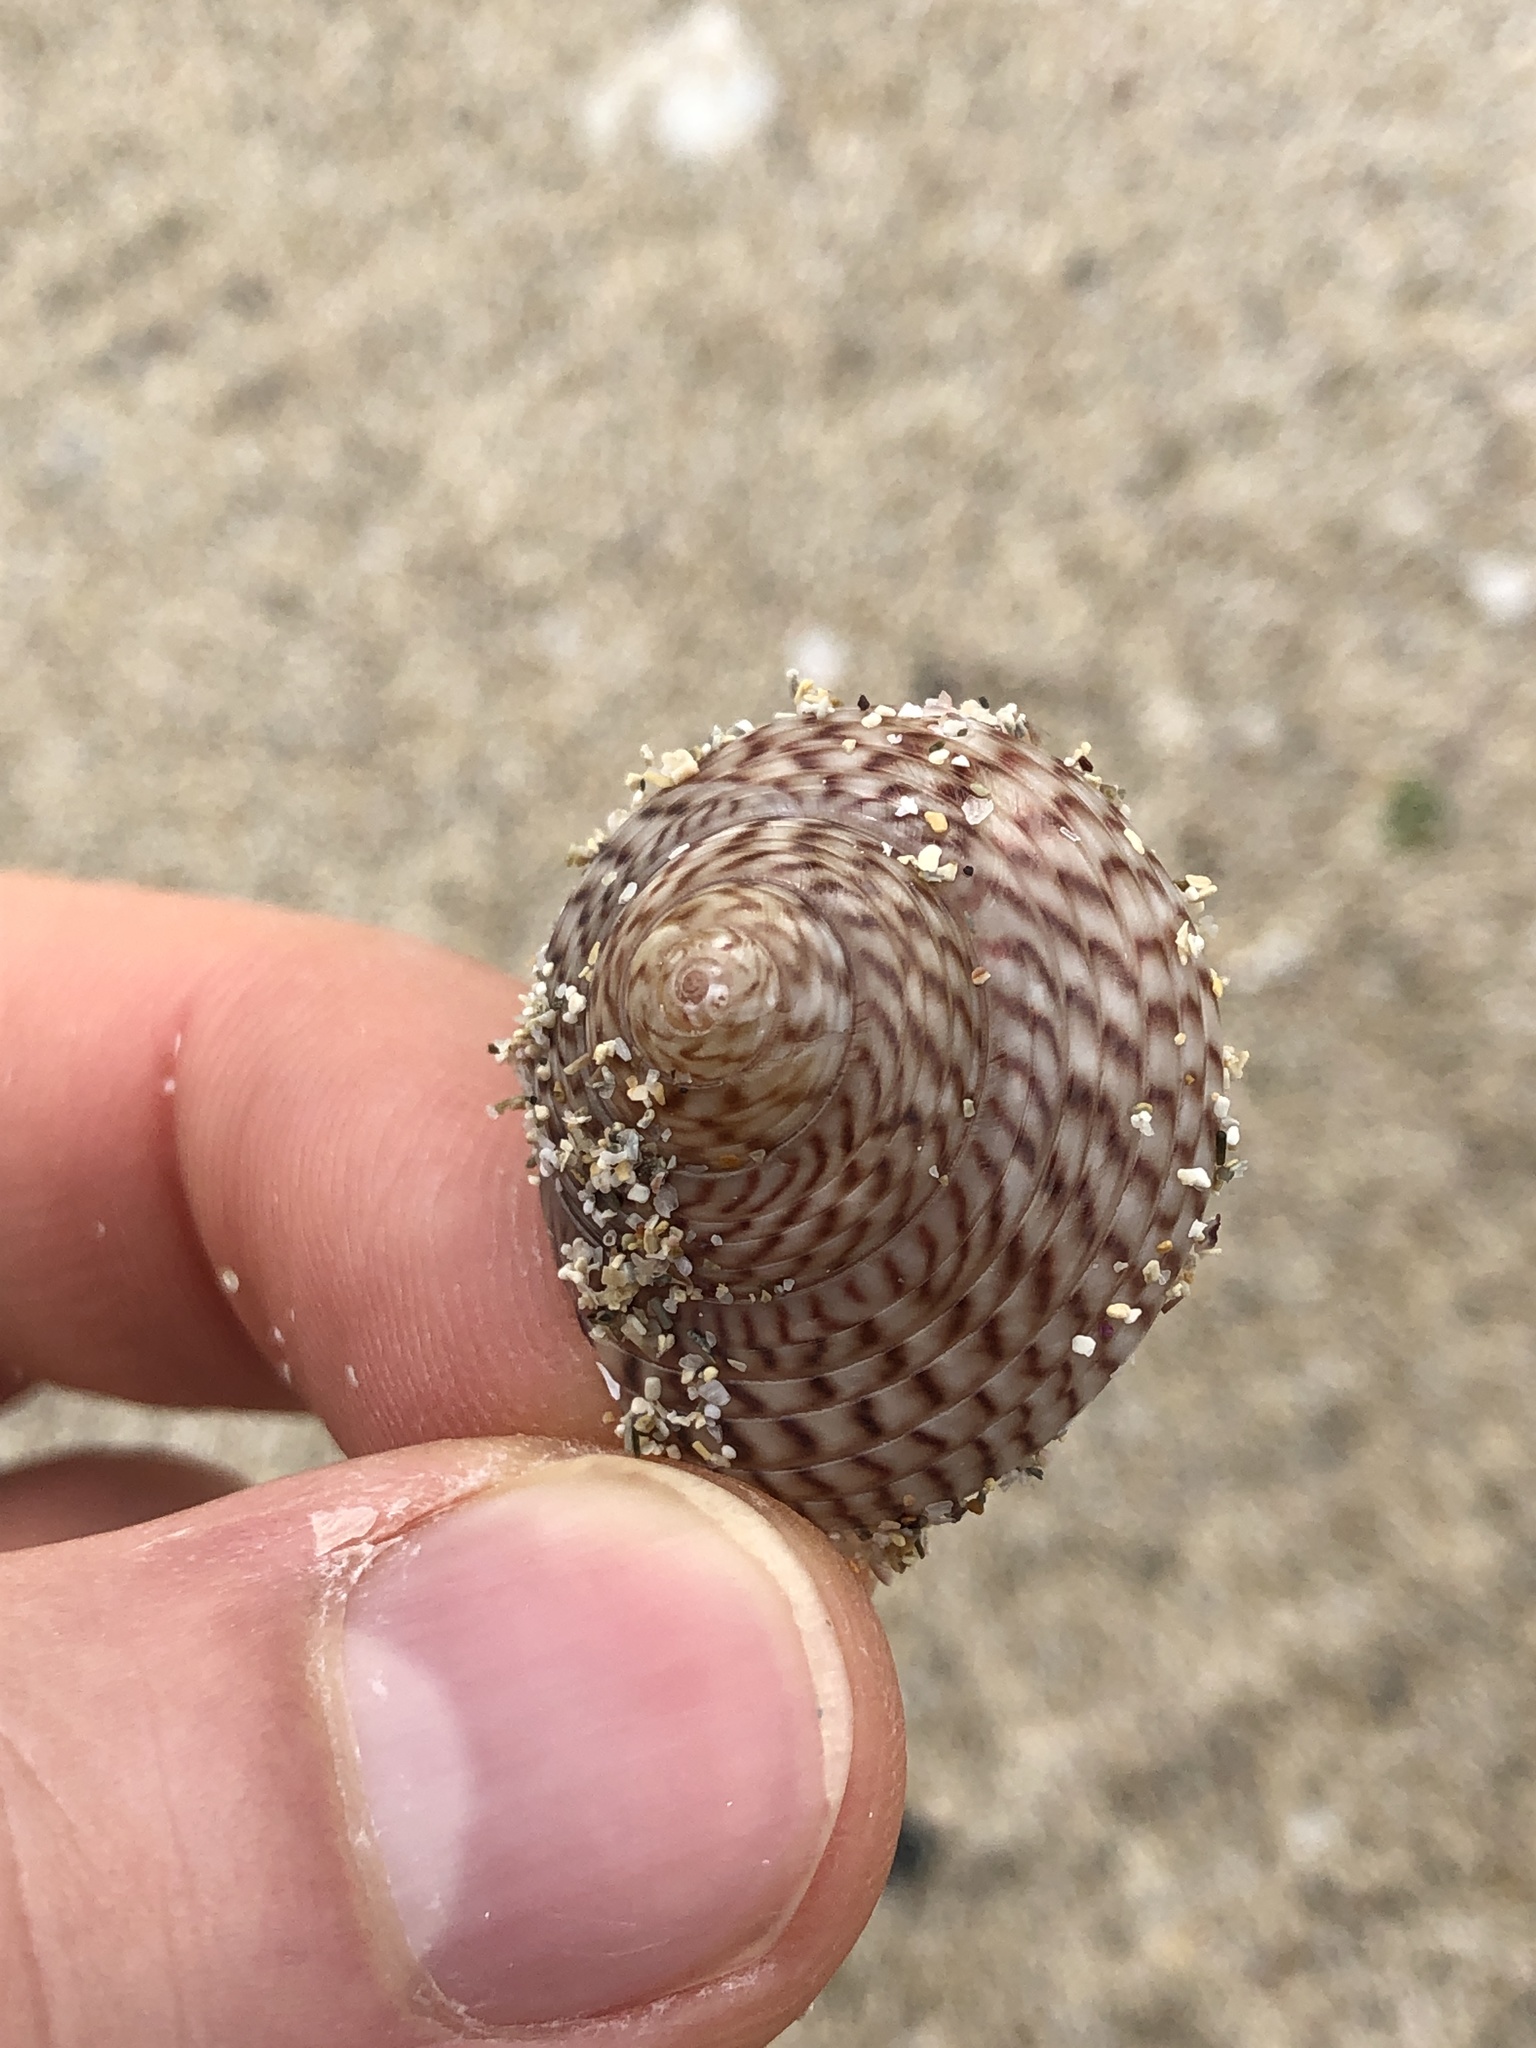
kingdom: Animalia
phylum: Mollusca
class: Gastropoda
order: Trochida
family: Trochidae
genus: Umbonium
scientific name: Umbonium costatum
